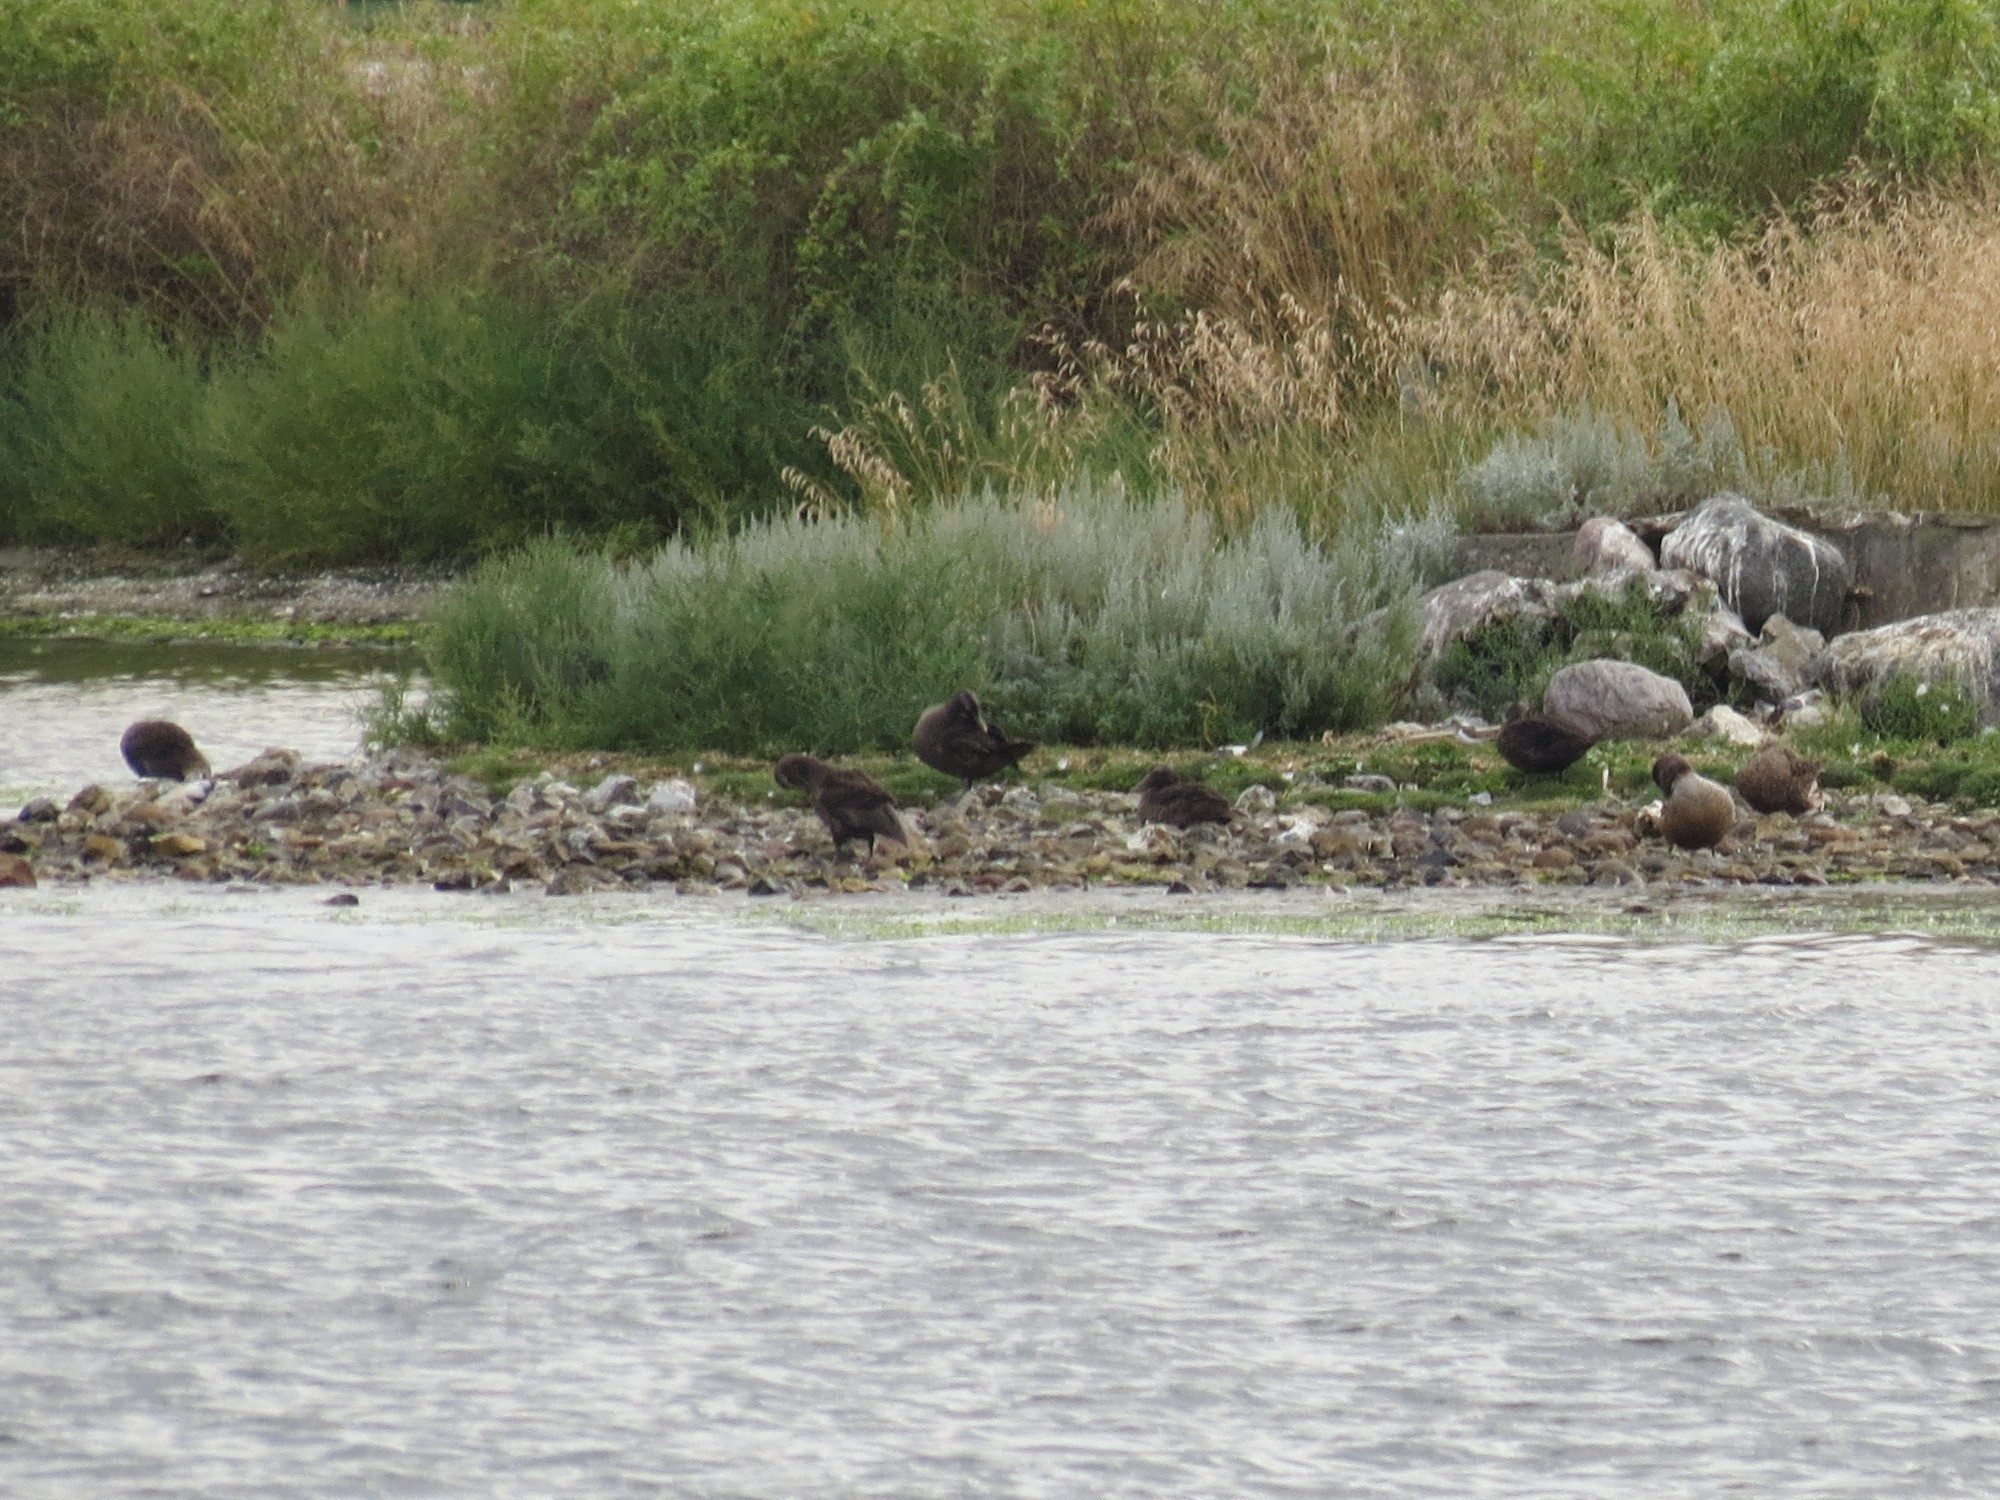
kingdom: Animalia
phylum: Chordata
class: Aves
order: Anseriformes
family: Anatidae
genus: Somateria
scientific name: Somateria mollissima
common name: Common eider
